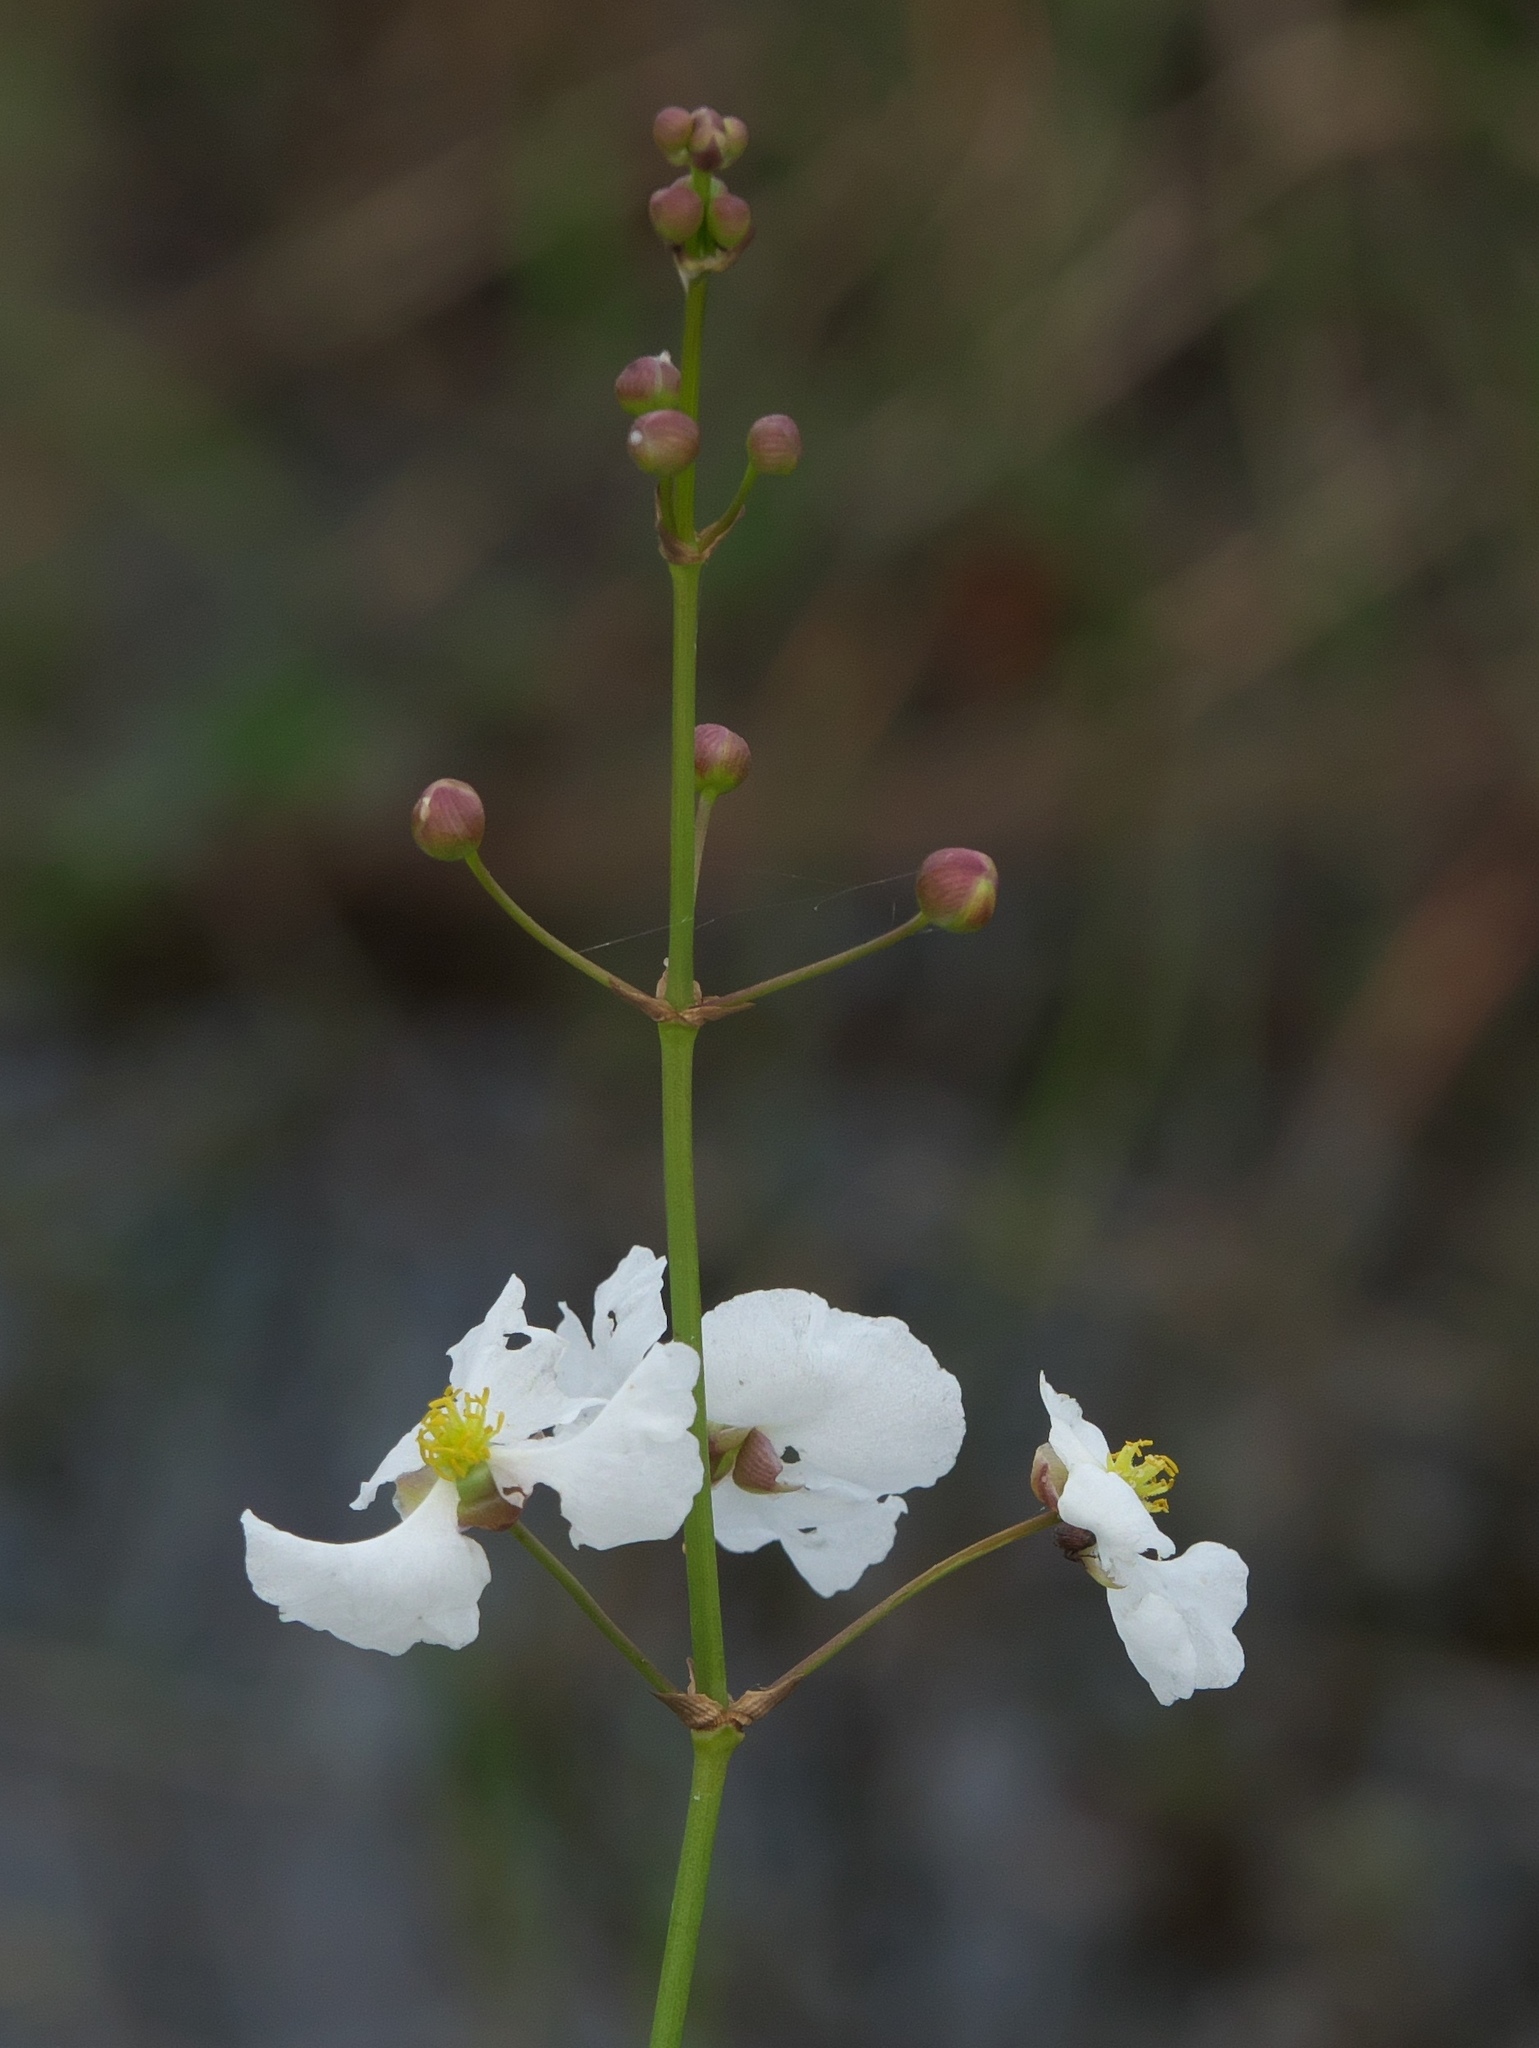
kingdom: Plantae
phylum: Tracheophyta
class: Liliopsida
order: Alismatales
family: Alismataceae
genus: Sagittaria
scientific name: Sagittaria lancifolia
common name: Lance-leaf arrowhead
